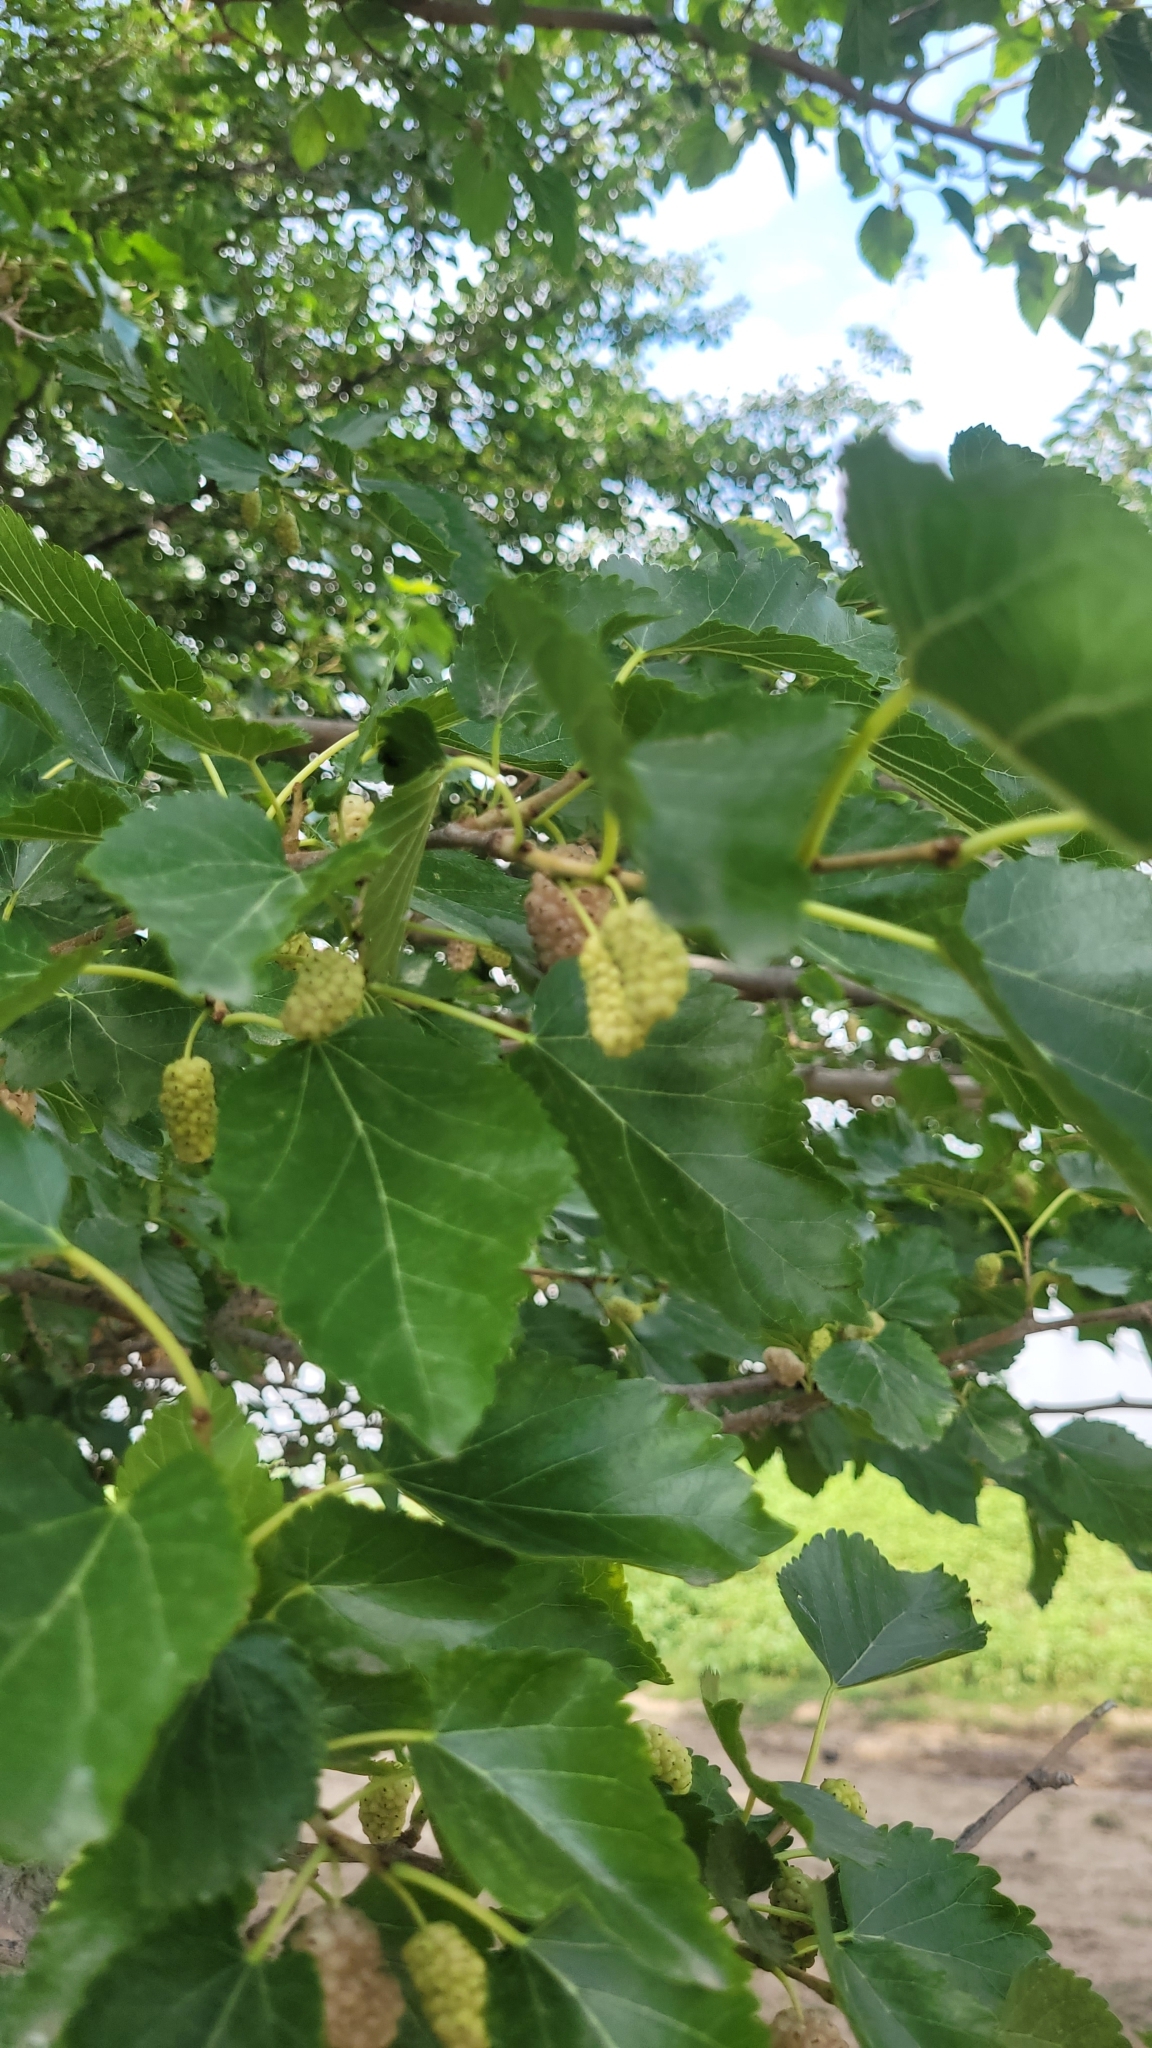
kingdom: Plantae
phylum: Tracheophyta
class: Magnoliopsida
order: Rosales
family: Moraceae
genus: Morus
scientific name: Morus alba
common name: White mulberry
